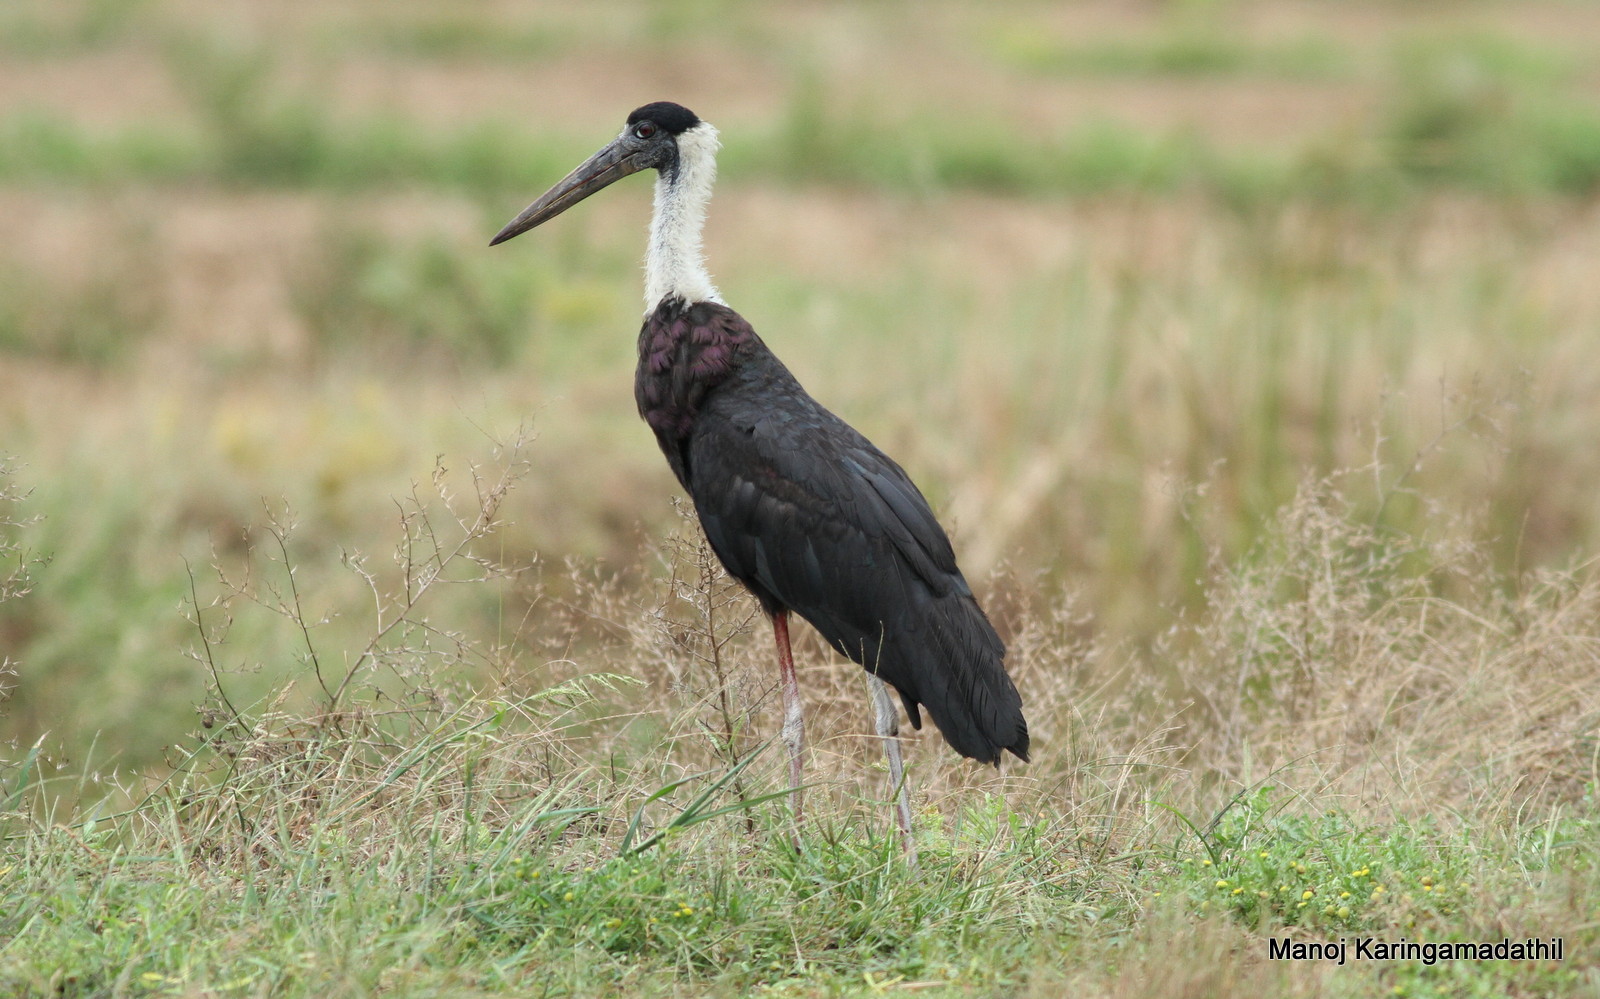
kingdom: Animalia
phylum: Chordata
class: Aves
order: Ciconiiformes
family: Ciconiidae
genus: Ciconia
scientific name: Ciconia episcopus
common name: Woolly-necked stork
